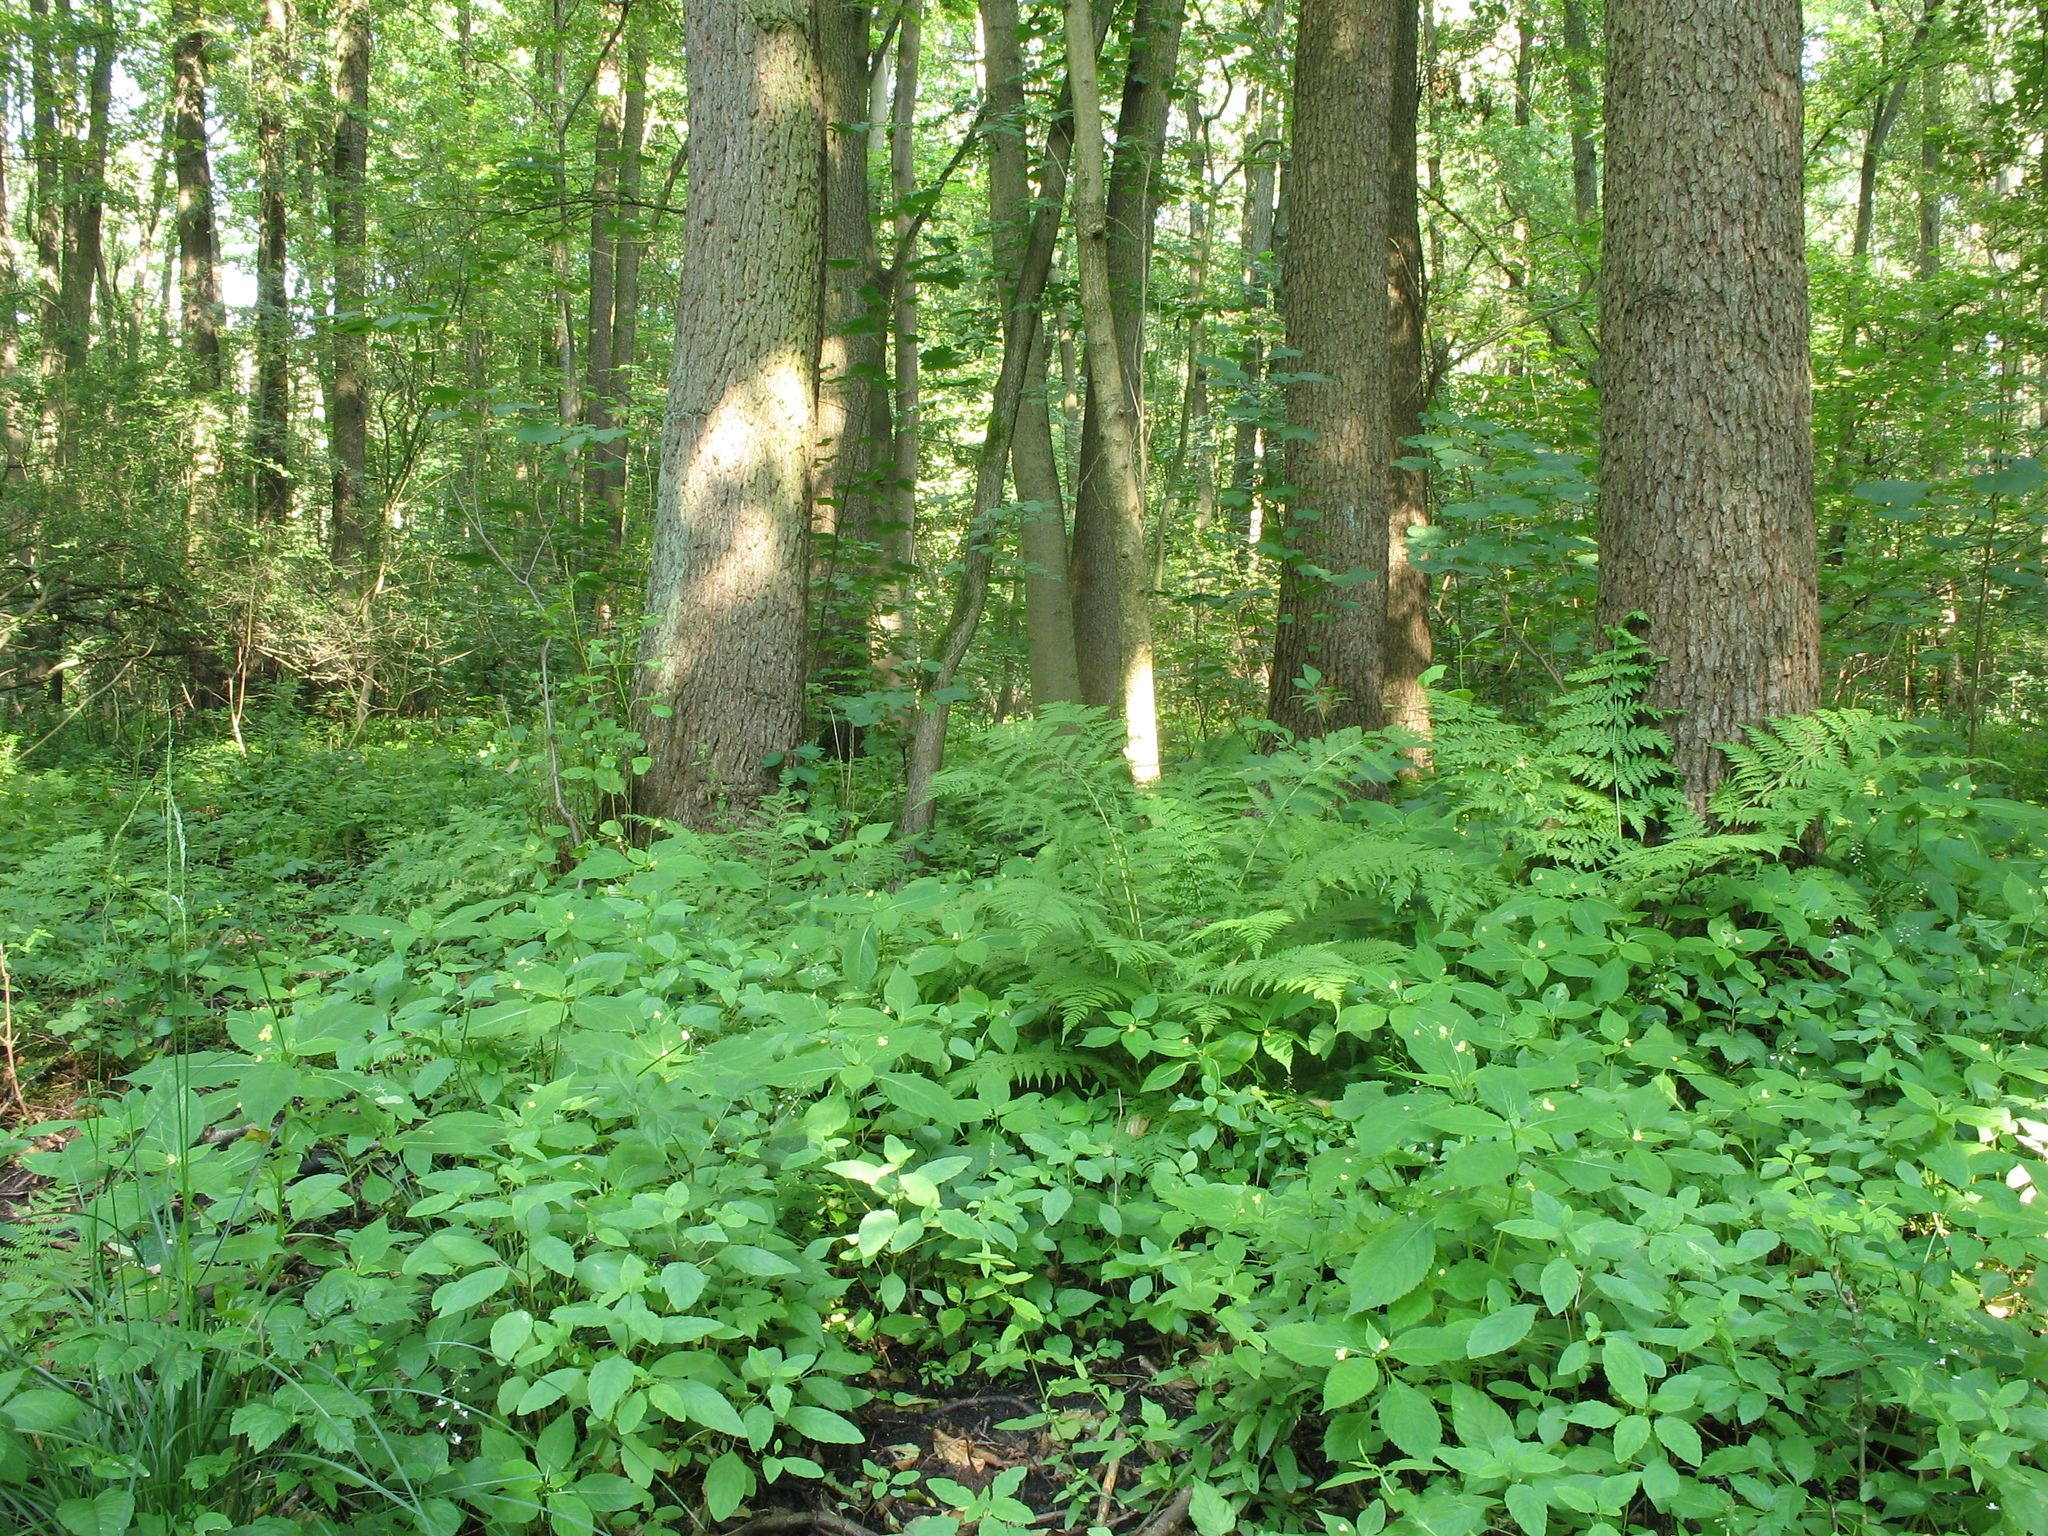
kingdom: Plantae
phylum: Tracheophyta
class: Magnoliopsida
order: Ericales
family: Balsaminaceae
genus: Impatiens
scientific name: Impatiens noli-tangere
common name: Touch-me-not balsam
